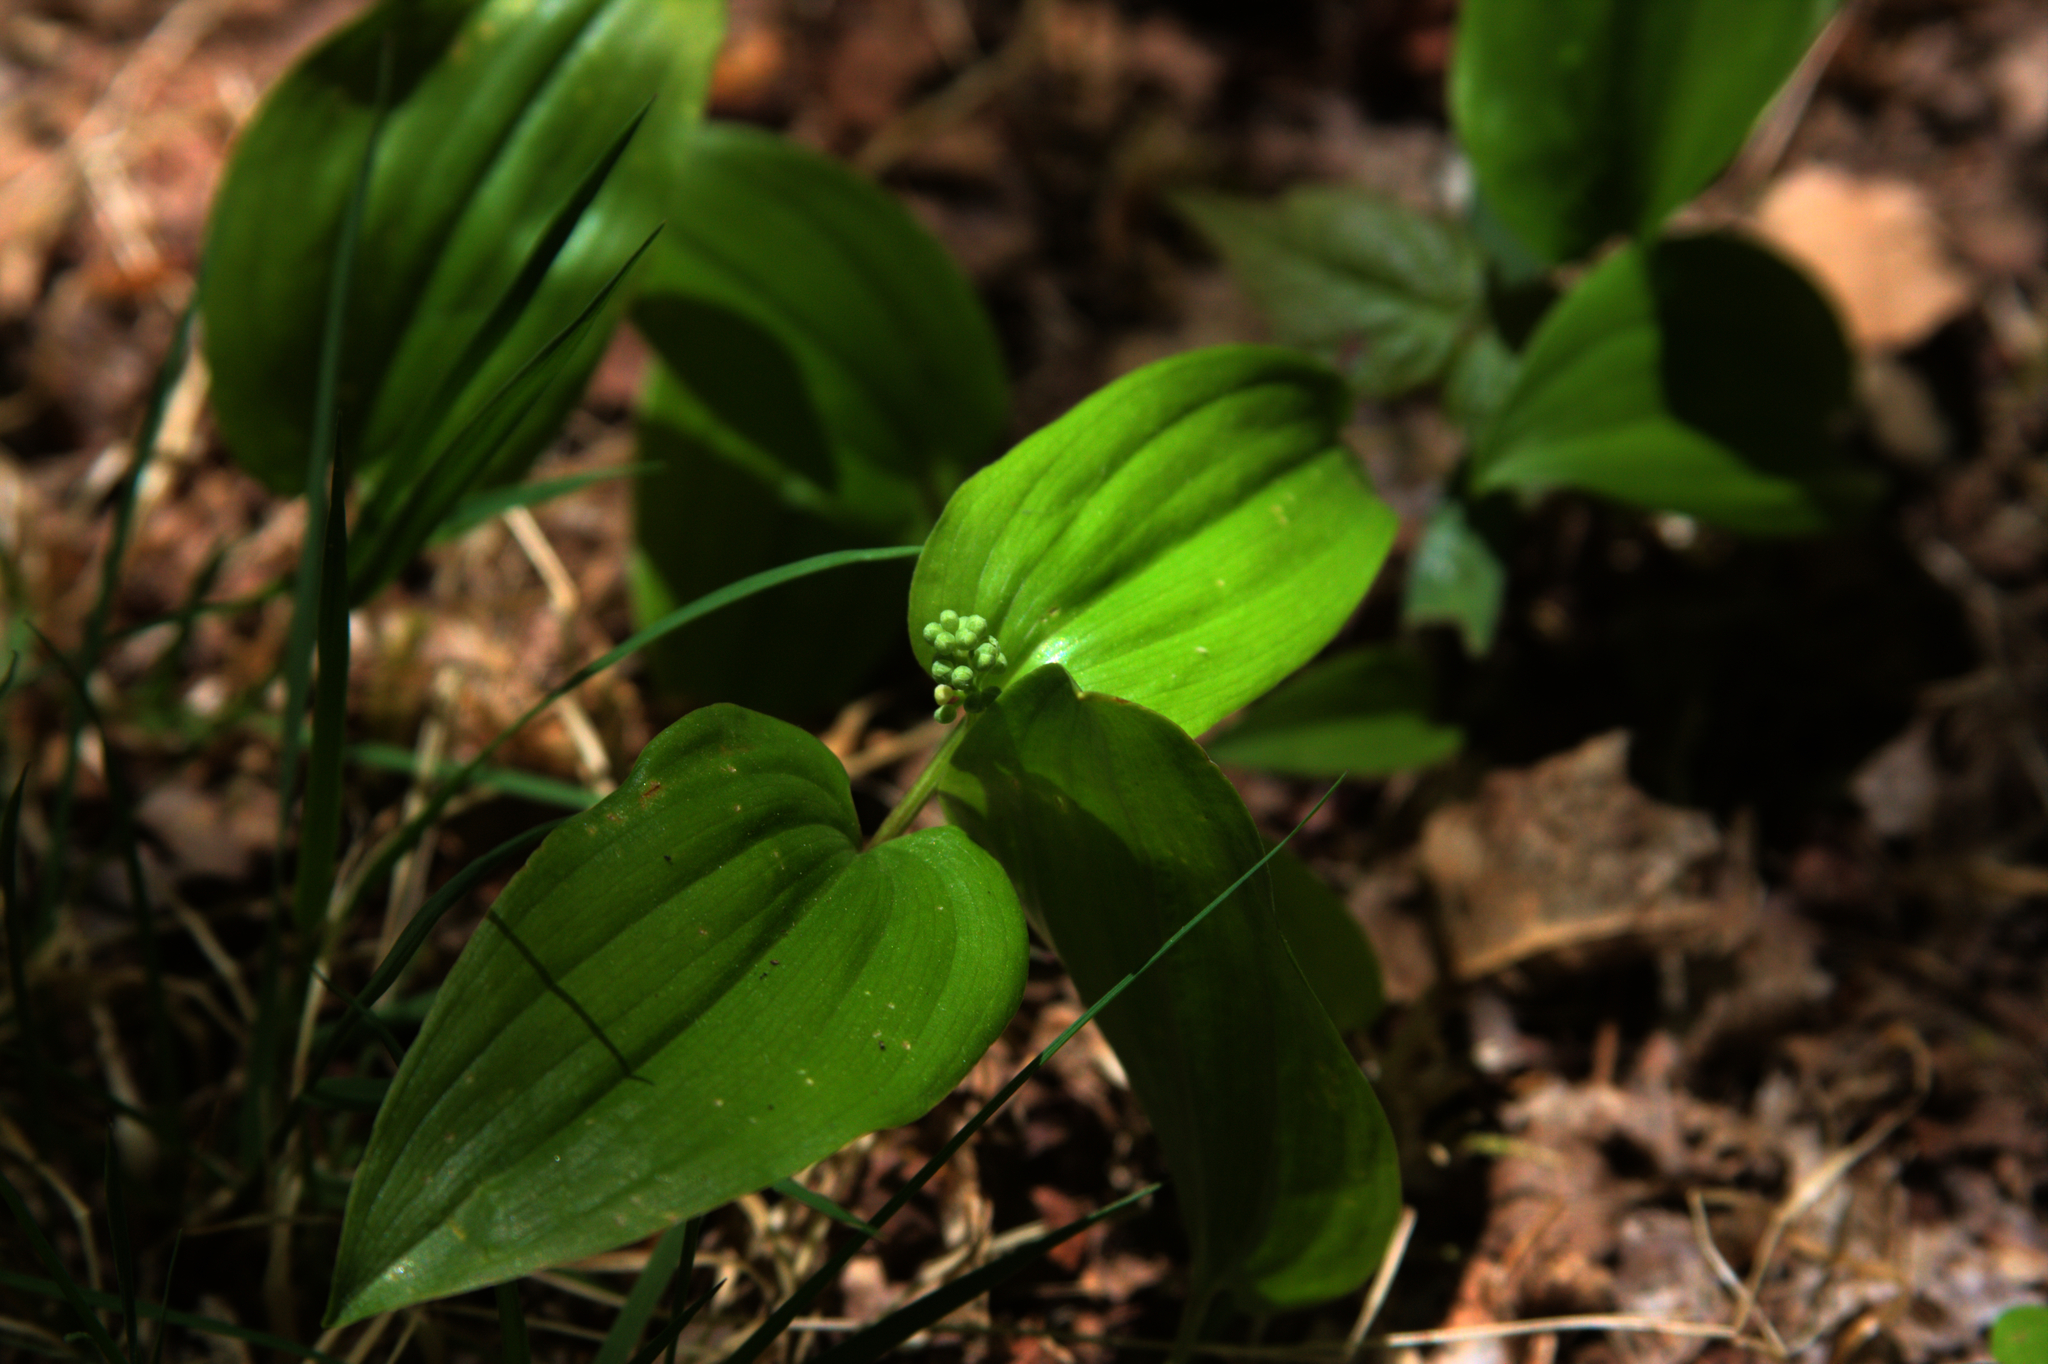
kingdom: Plantae
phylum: Tracheophyta
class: Liliopsida
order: Asparagales
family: Asparagaceae
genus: Maianthemum
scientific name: Maianthemum canadense
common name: False lily-of-the-valley
